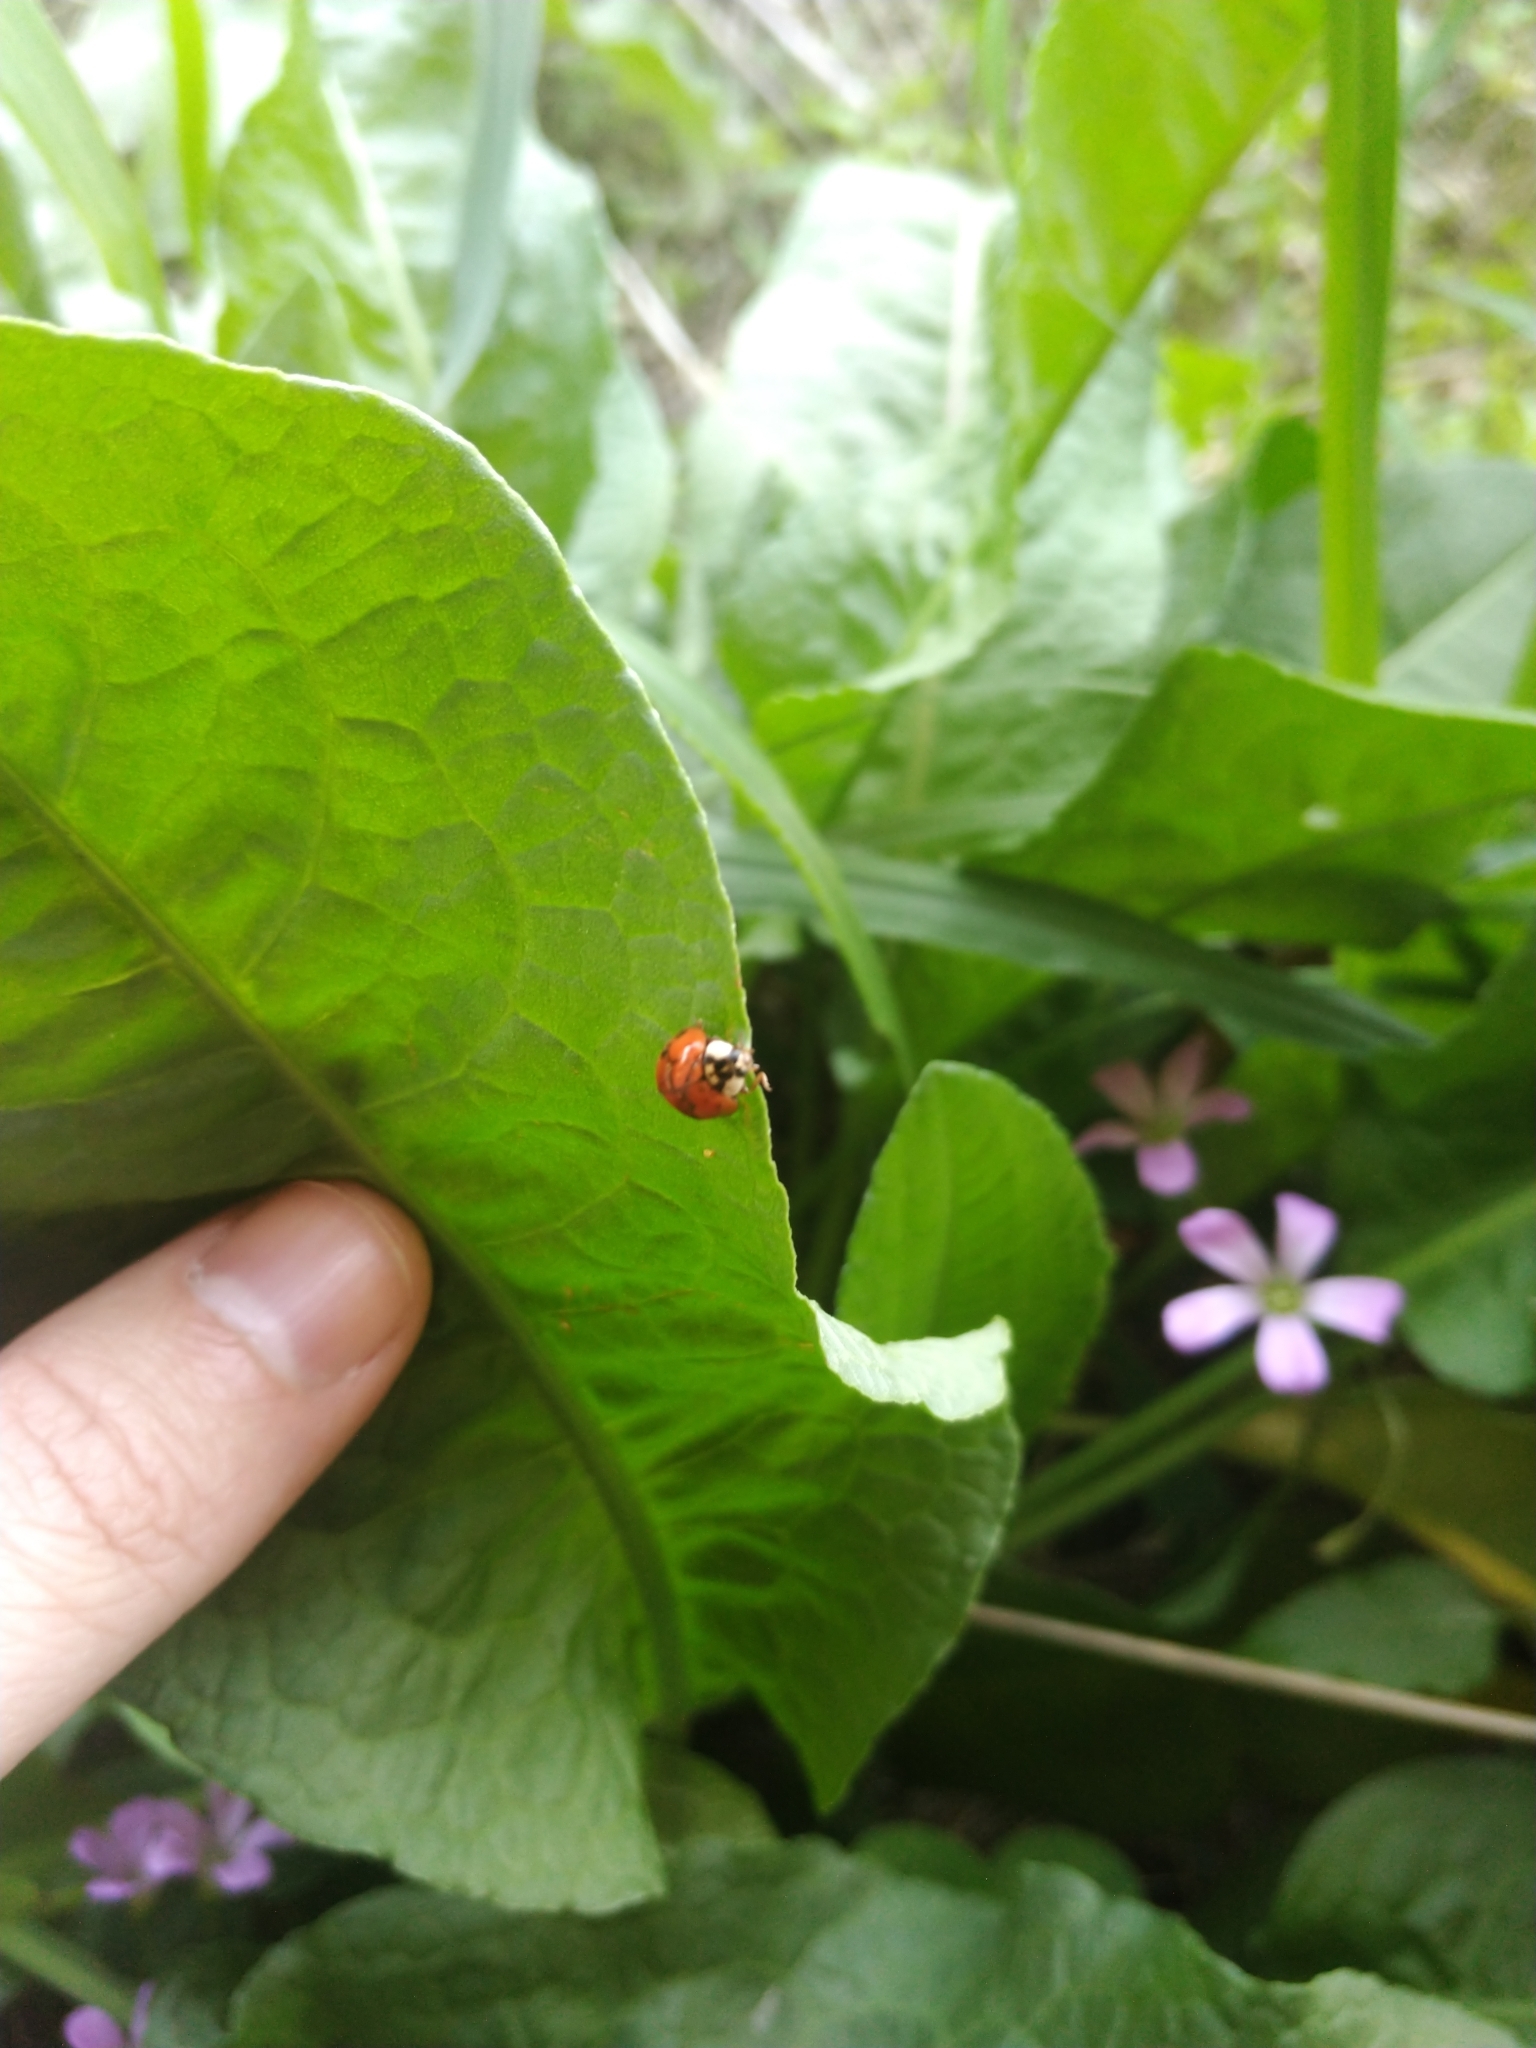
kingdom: Animalia
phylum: Arthropoda
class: Insecta
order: Coleoptera
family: Coccinellidae
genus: Harmonia
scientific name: Harmonia axyridis
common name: Harlequin ladybird
